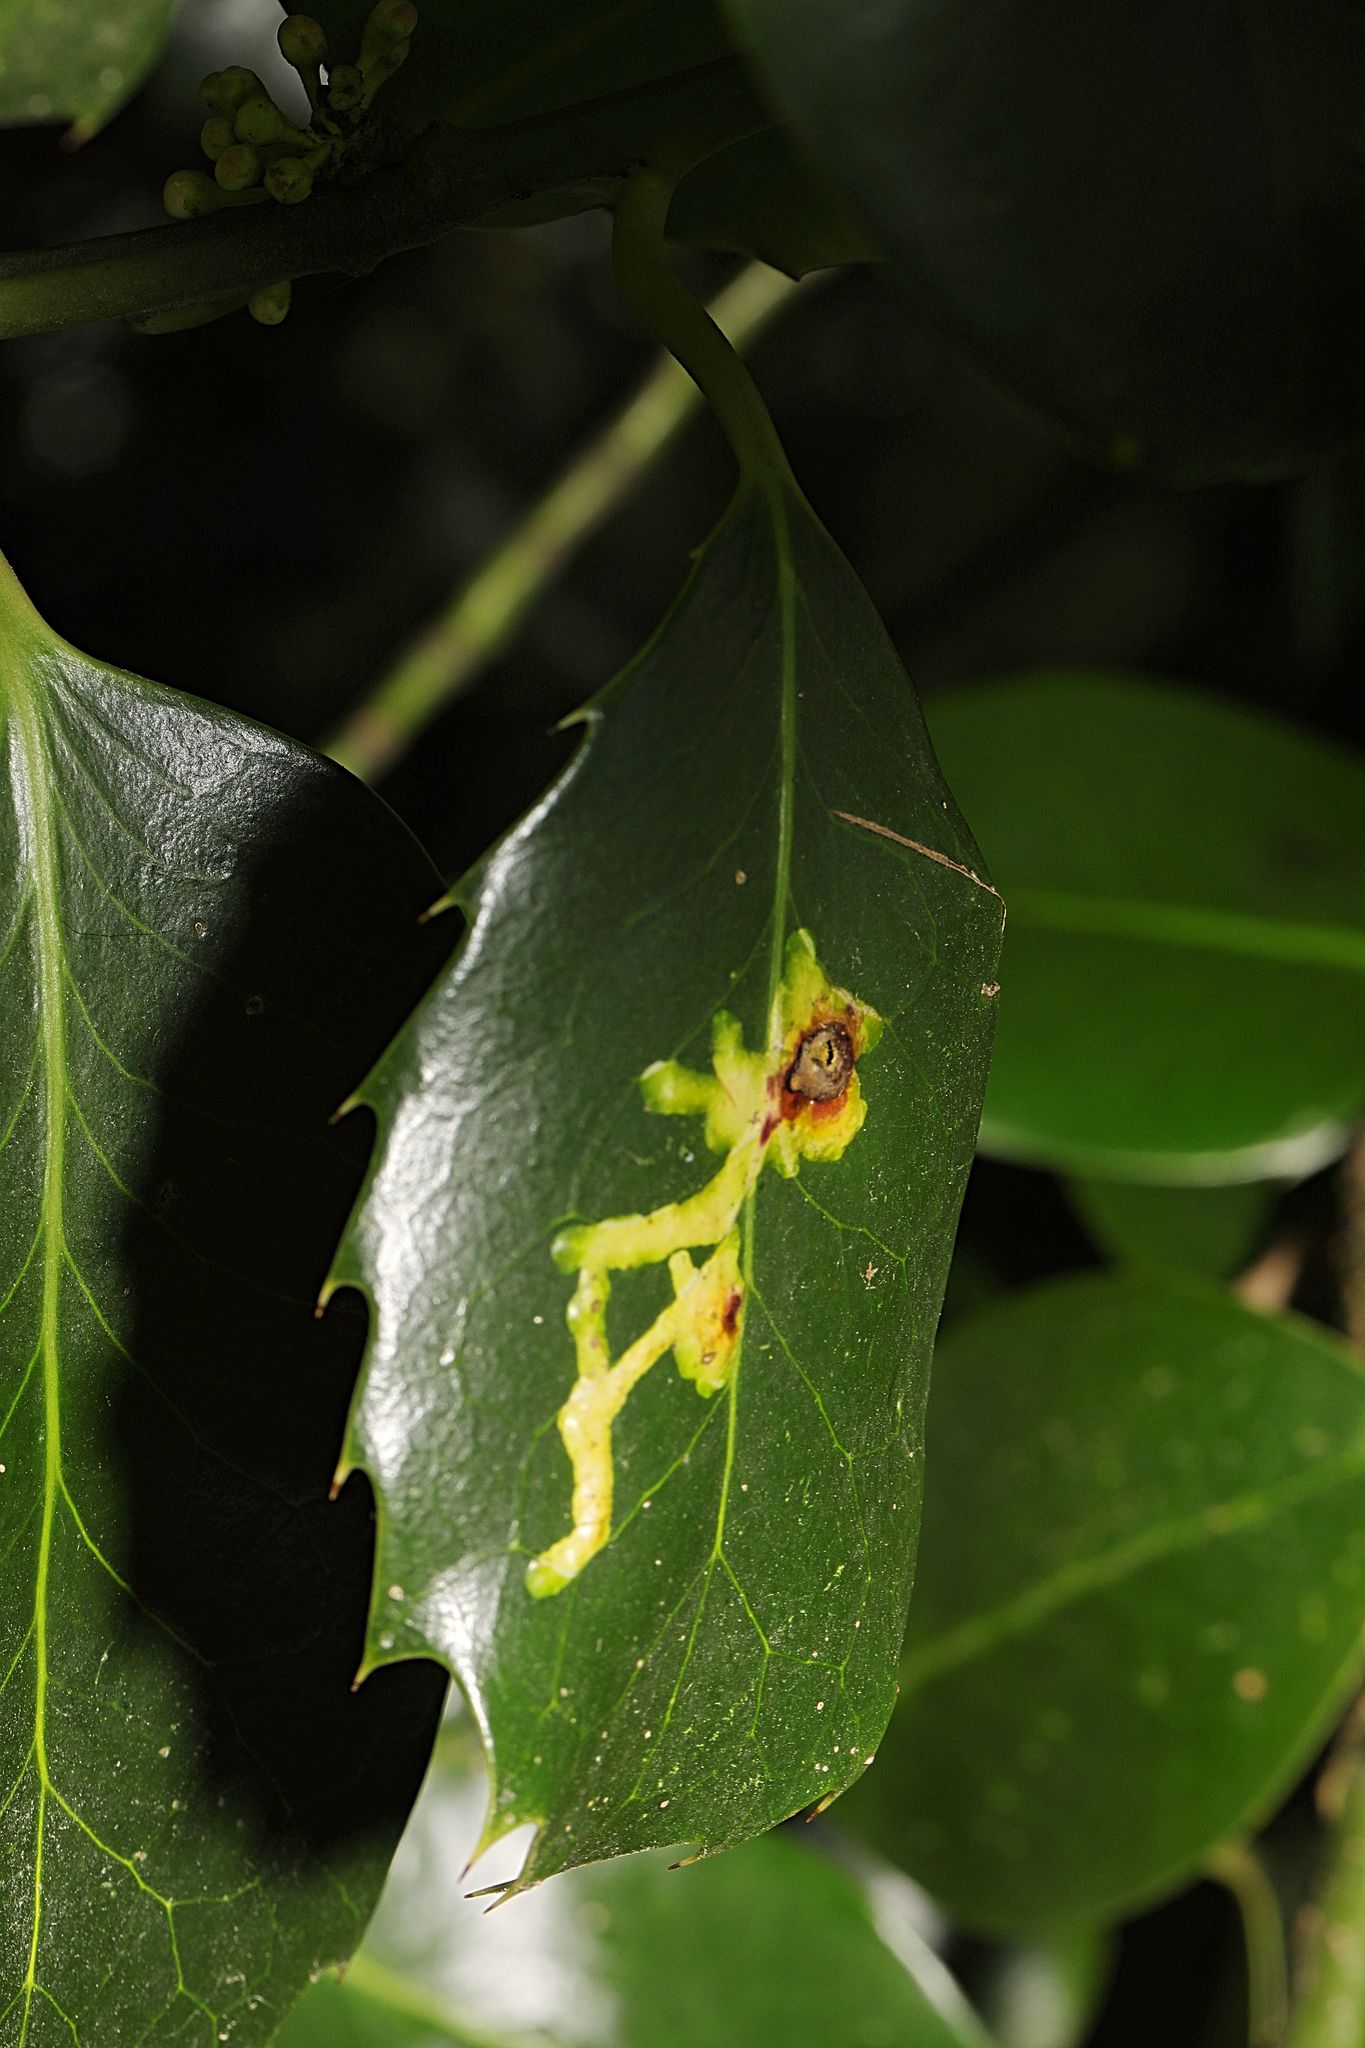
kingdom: Animalia
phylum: Arthropoda
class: Insecta
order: Diptera
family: Agromyzidae
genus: Phytomyza
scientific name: Phytomyza ilicis
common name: Holly leafminer
